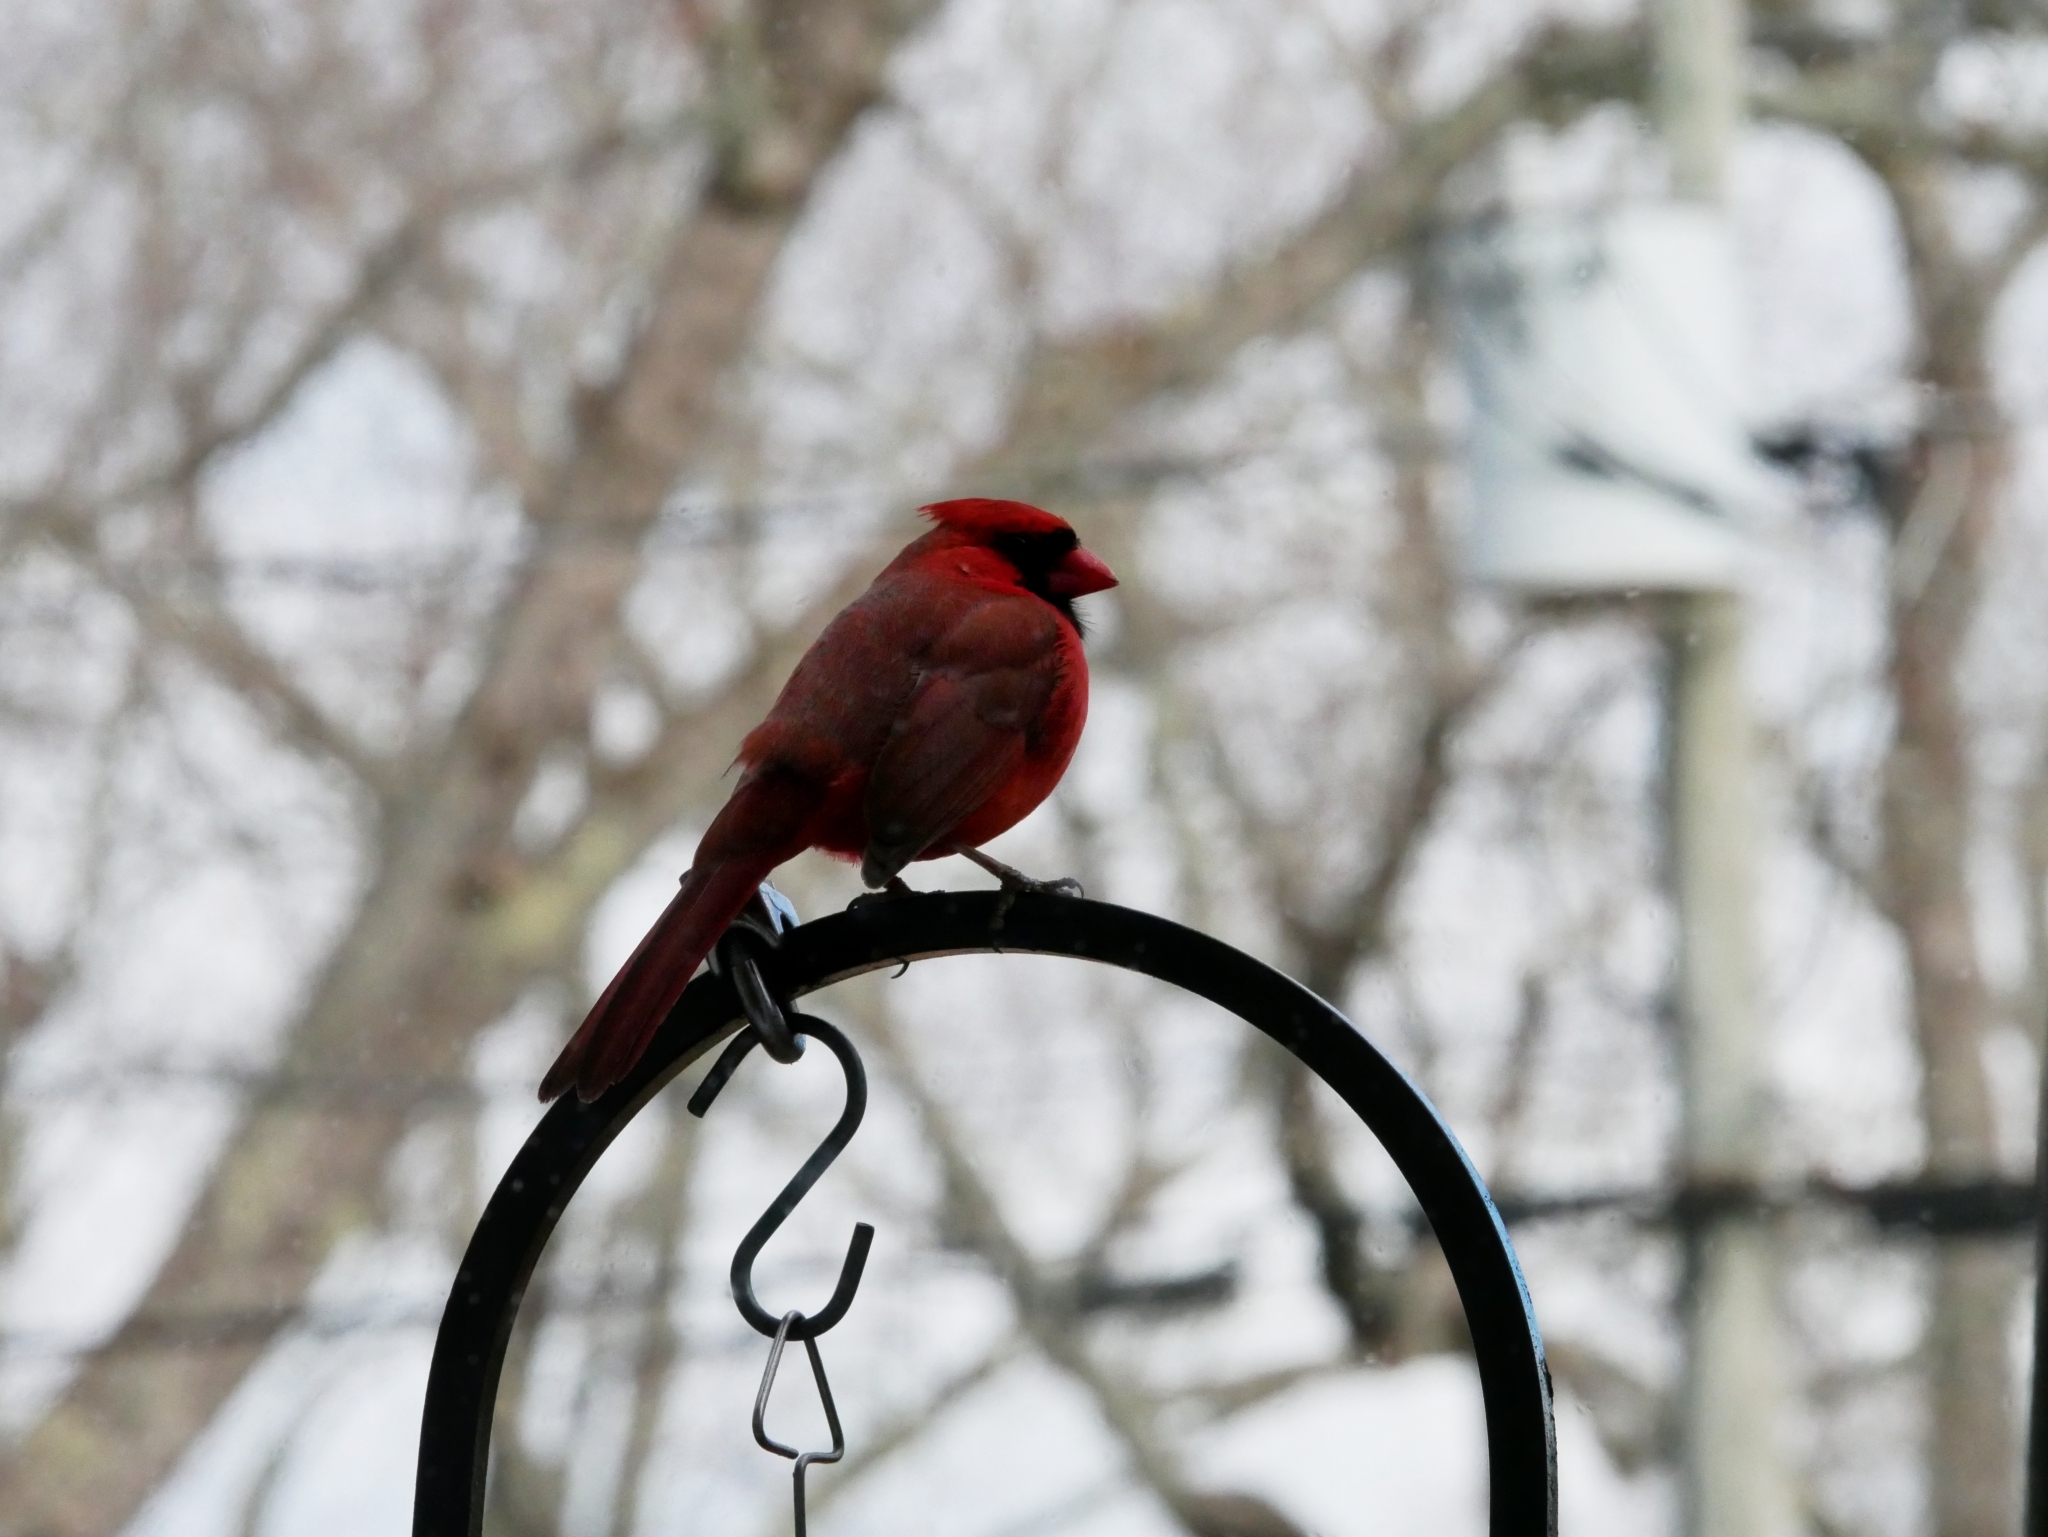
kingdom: Animalia
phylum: Chordata
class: Aves
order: Passeriformes
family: Cardinalidae
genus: Cardinalis
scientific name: Cardinalis cardinalis
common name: Northern cardinal
